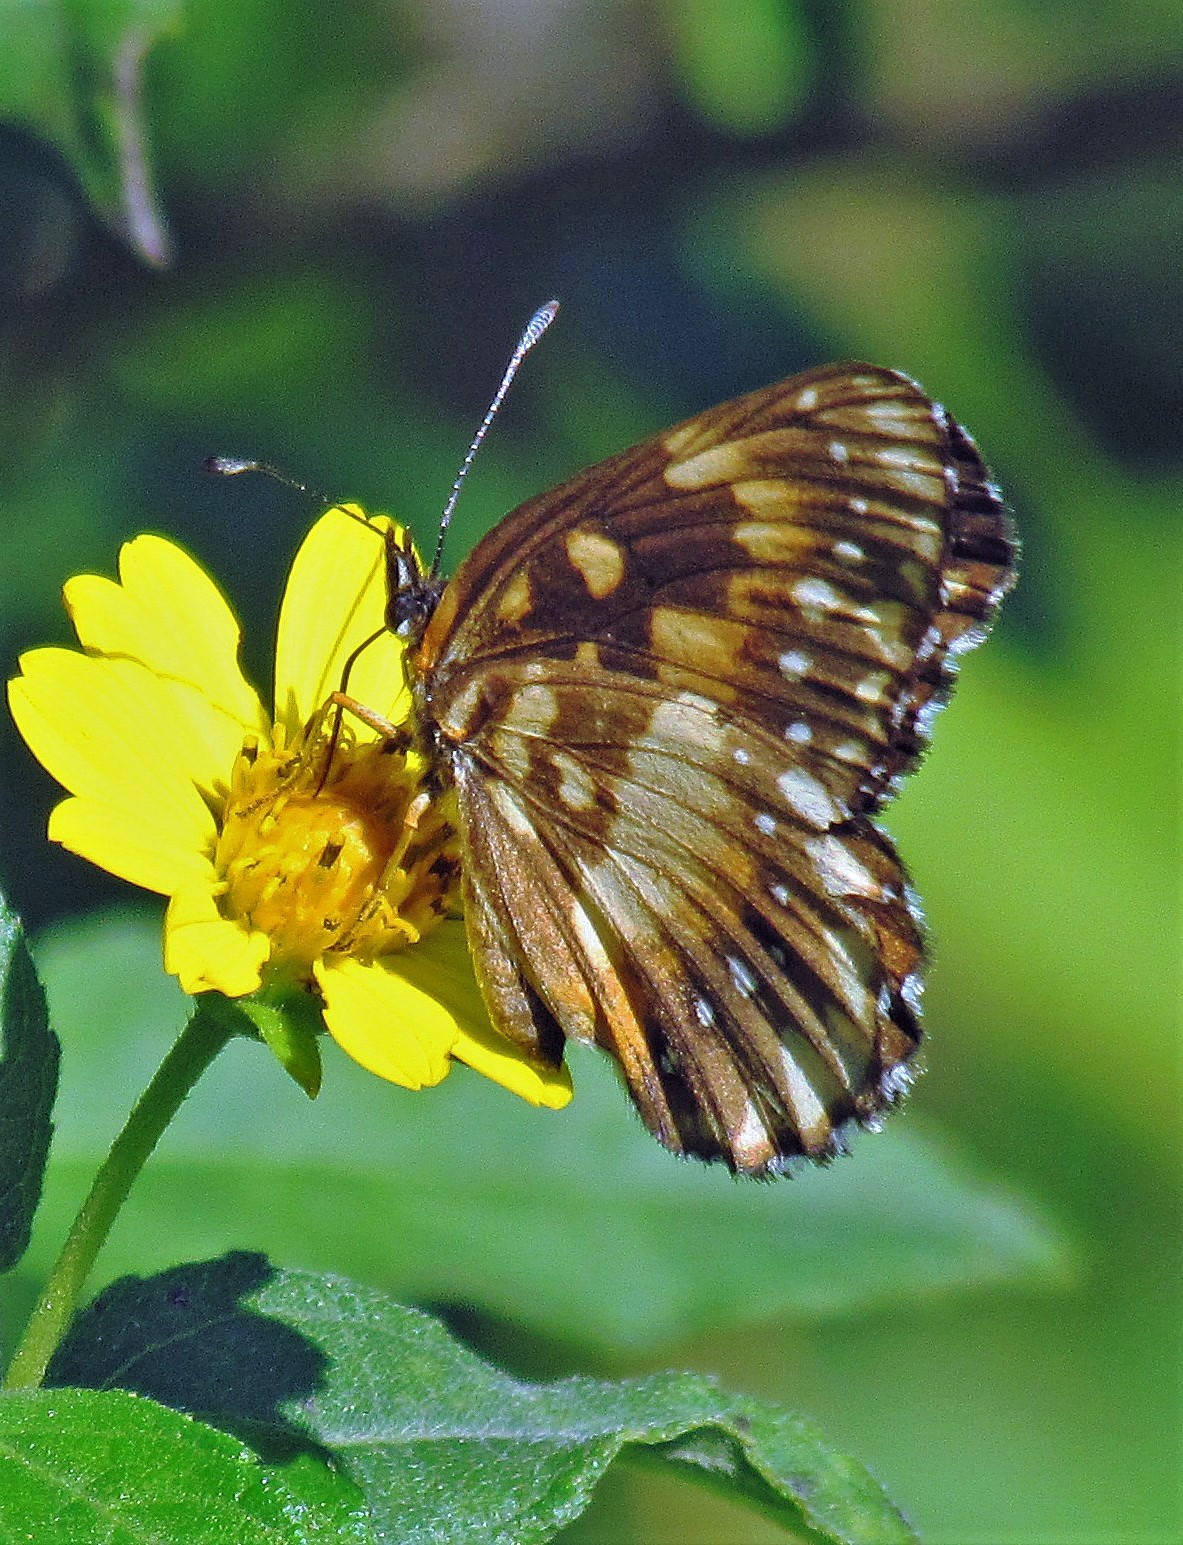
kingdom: Animalia
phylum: Arthropoda
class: Insecta
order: Lepidoptera
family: Nymphalidae
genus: Chlosyne
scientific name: Chlosyne lacinia
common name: Bordered patch
